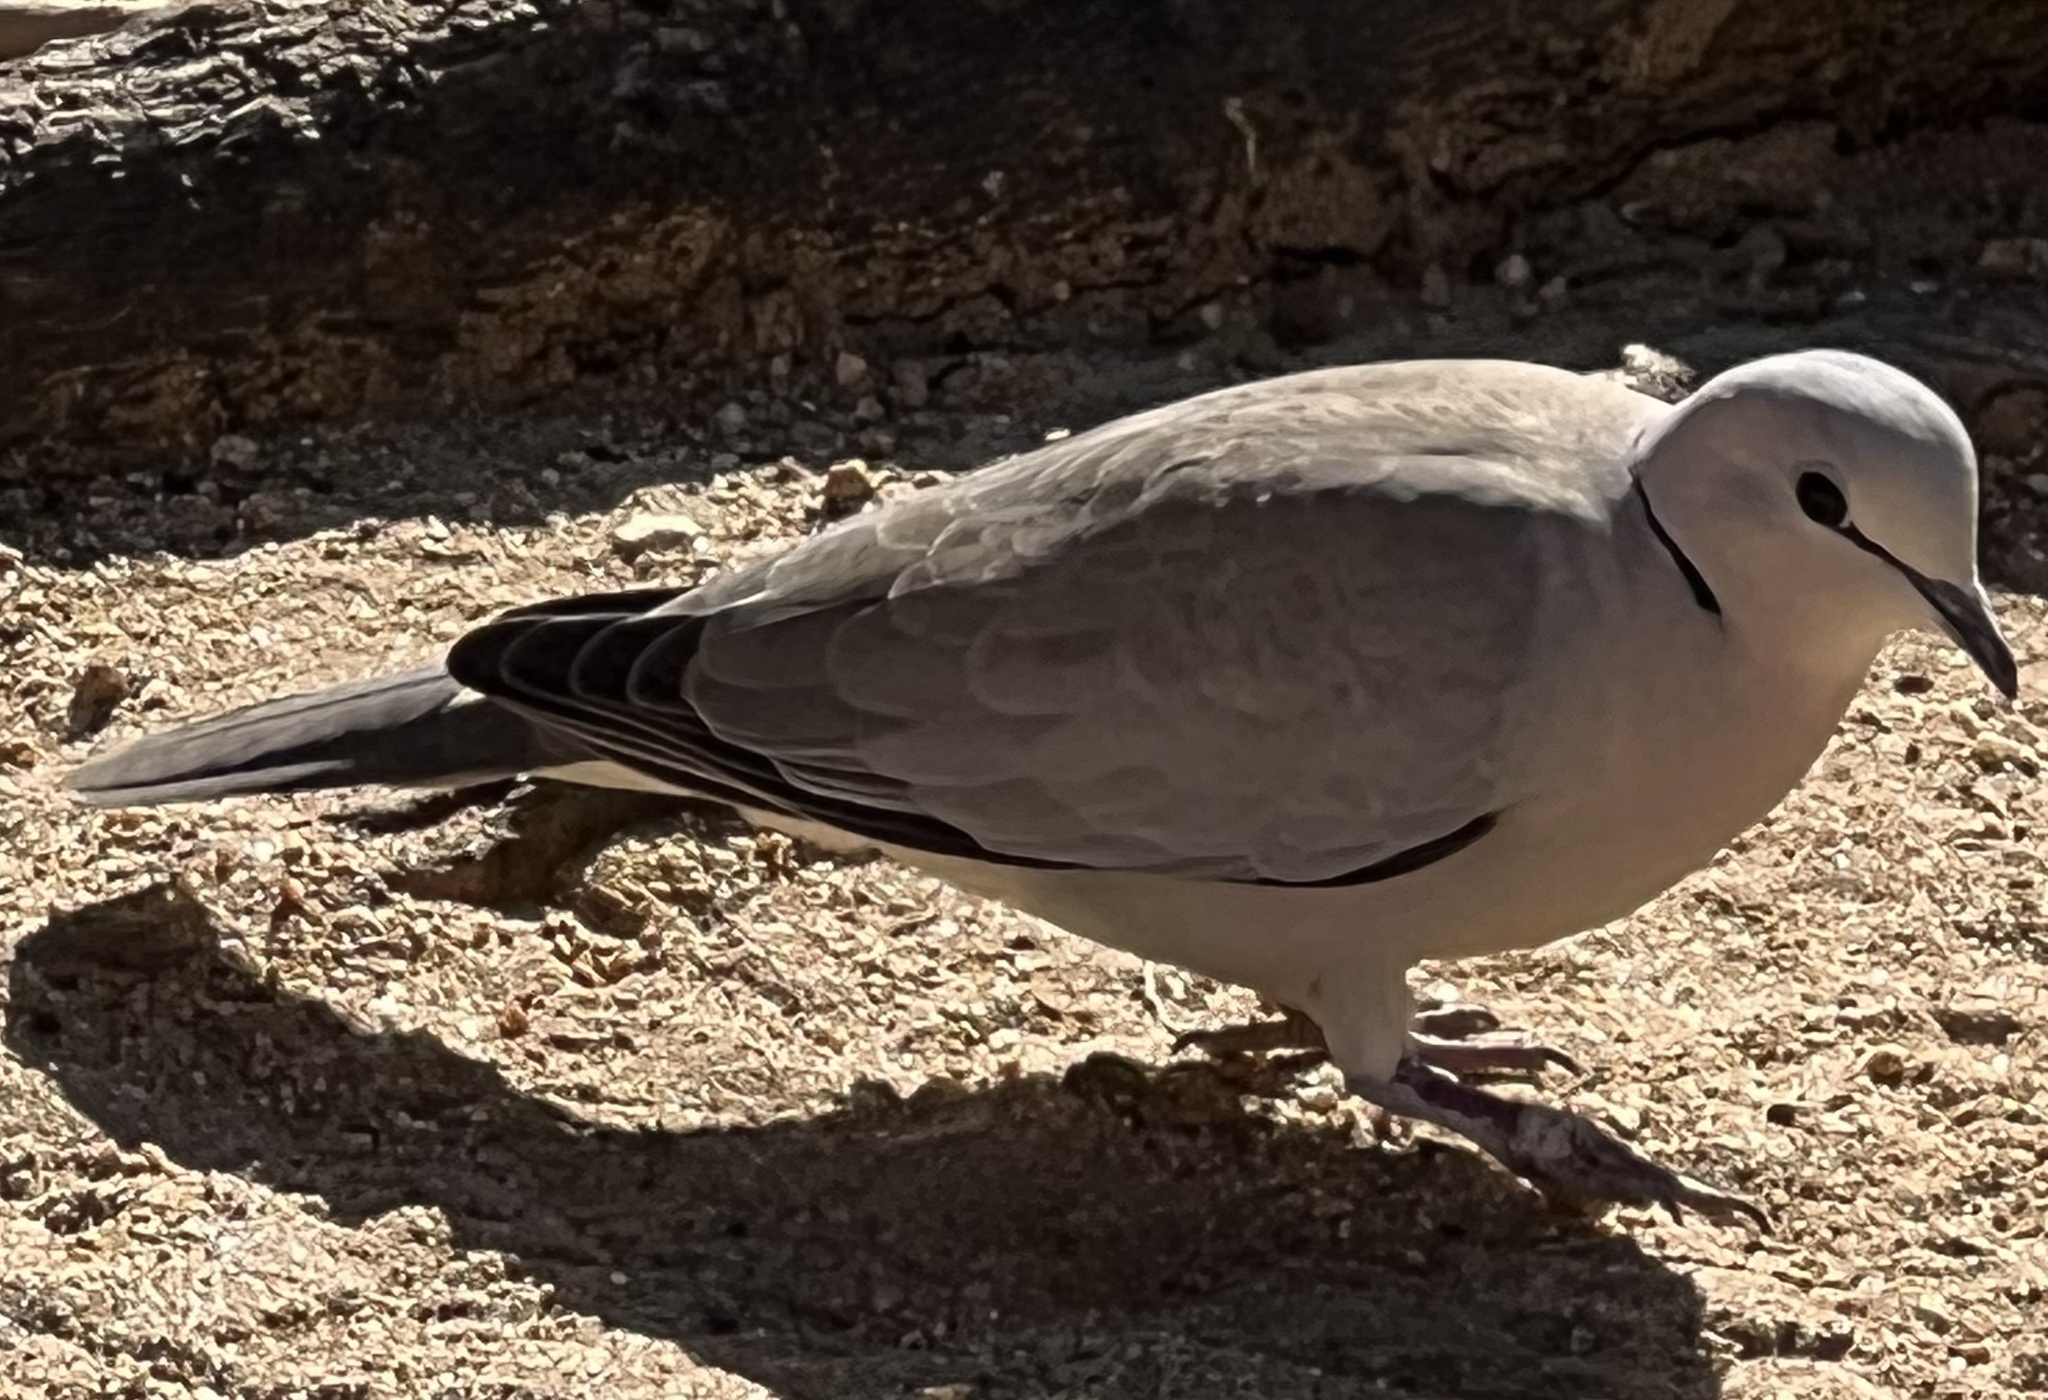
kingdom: Animalia
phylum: Chordata
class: Aves
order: Columbiformes
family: Columbidae
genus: Streptopelia
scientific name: Streptopelia capicola
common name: Ring-necked dove
